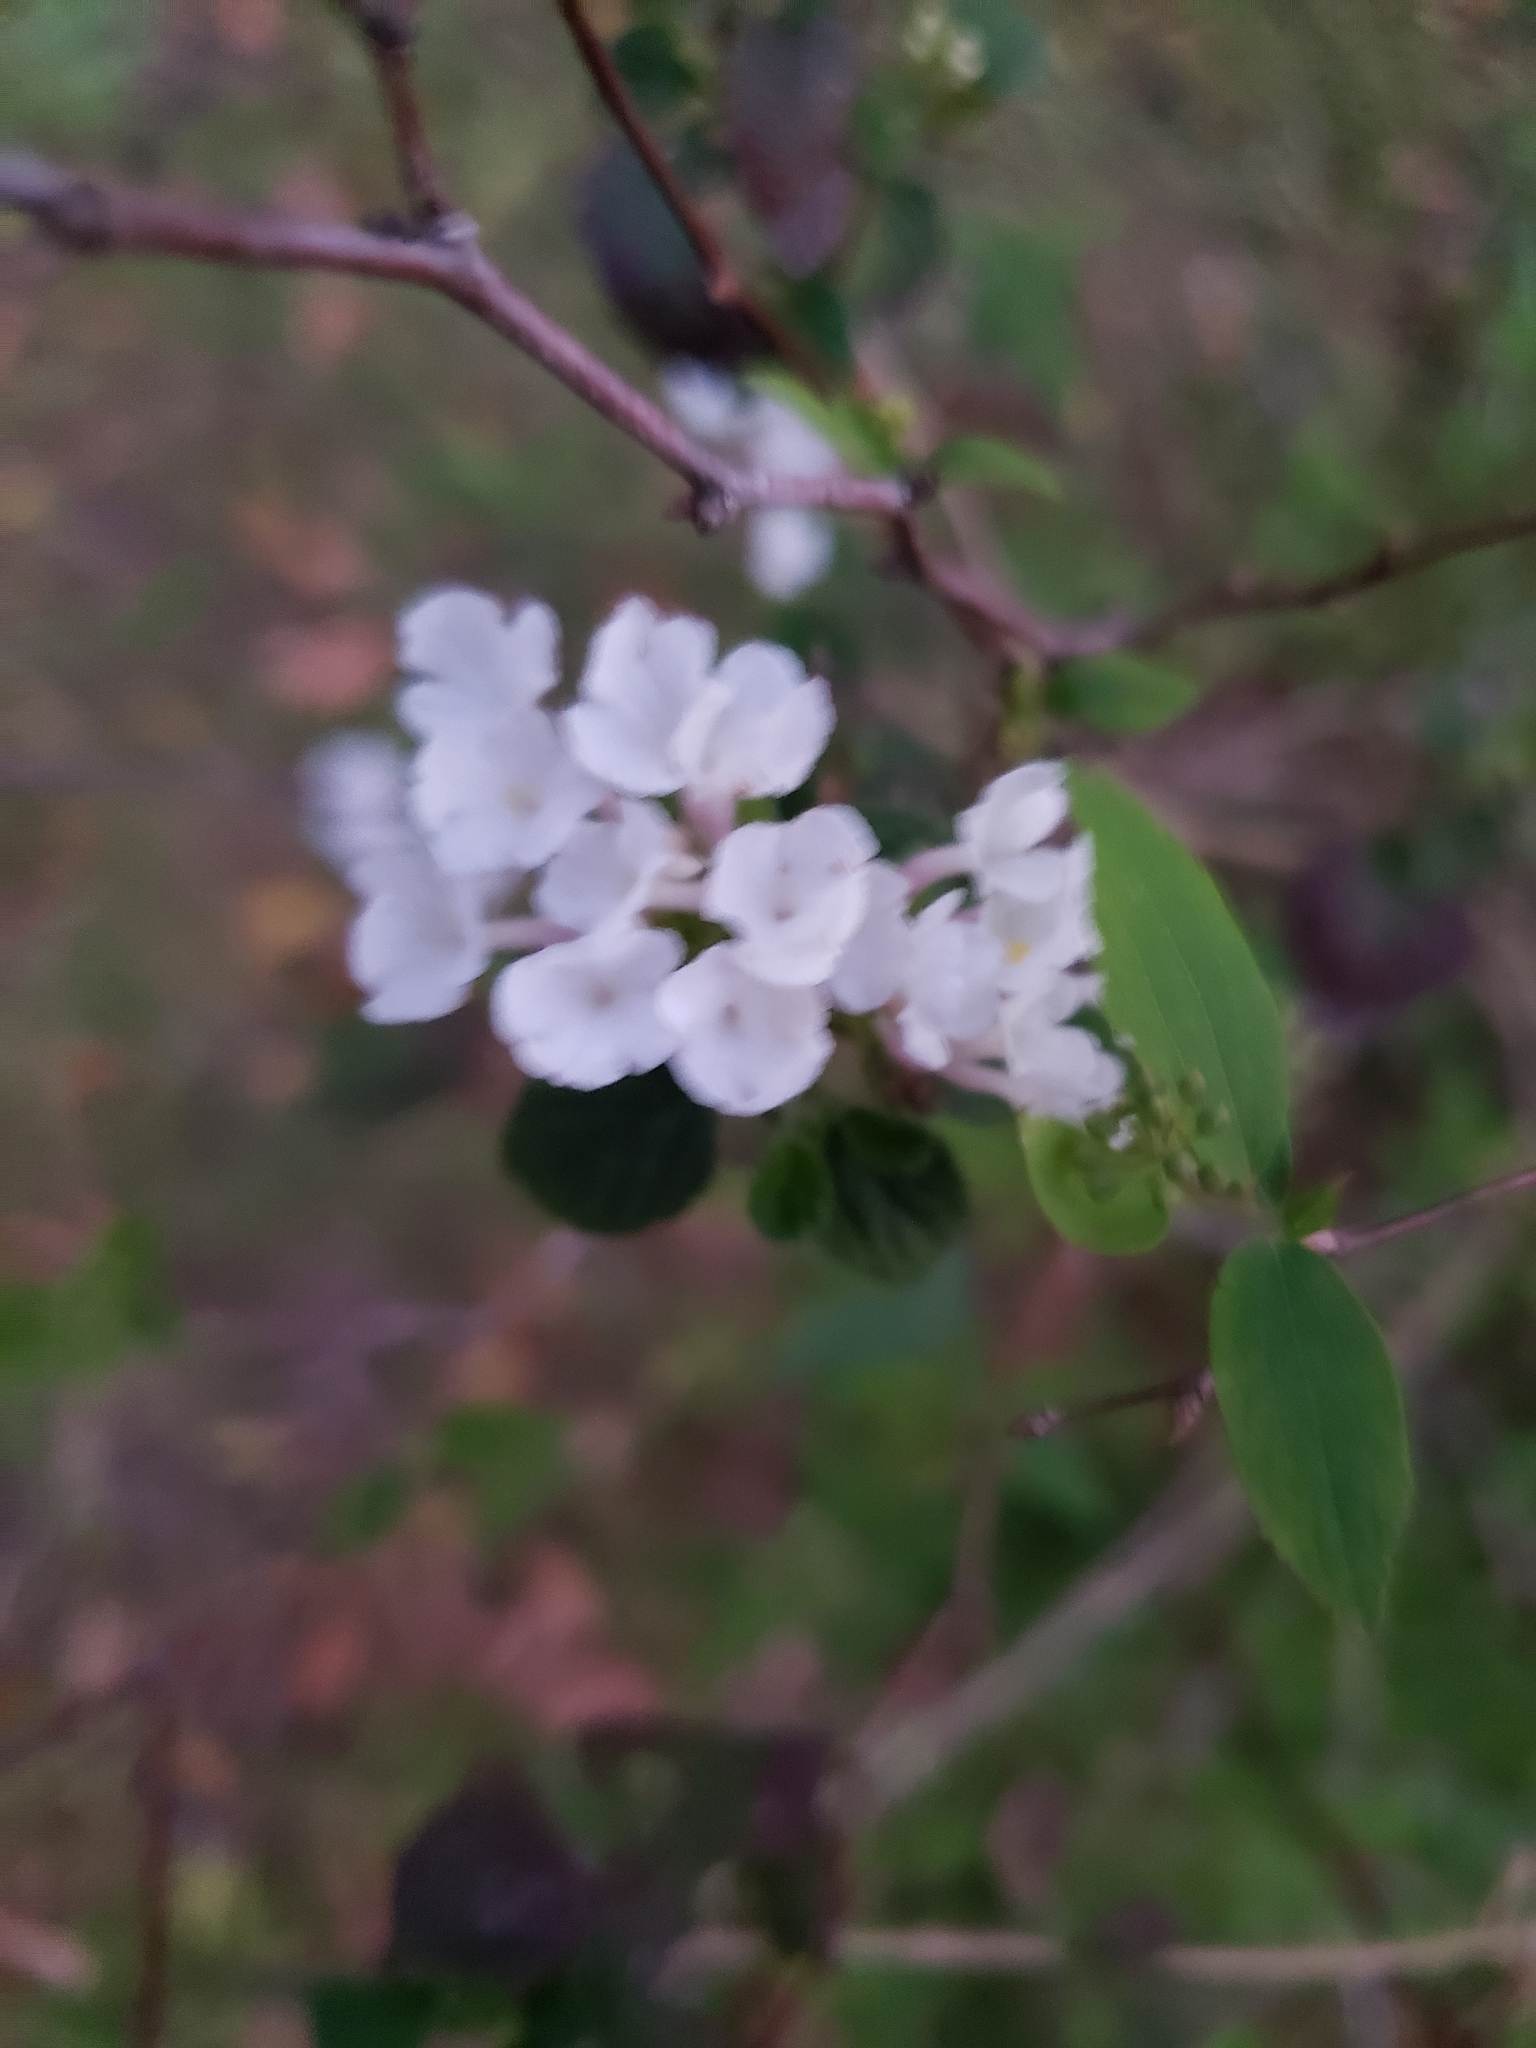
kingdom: Plantae
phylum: Tracheophyta
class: Magnoliopsida
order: Lamiales
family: Verbenaceae
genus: Lantana
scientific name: Lantana montevidensis
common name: Trailing shrubverbena
